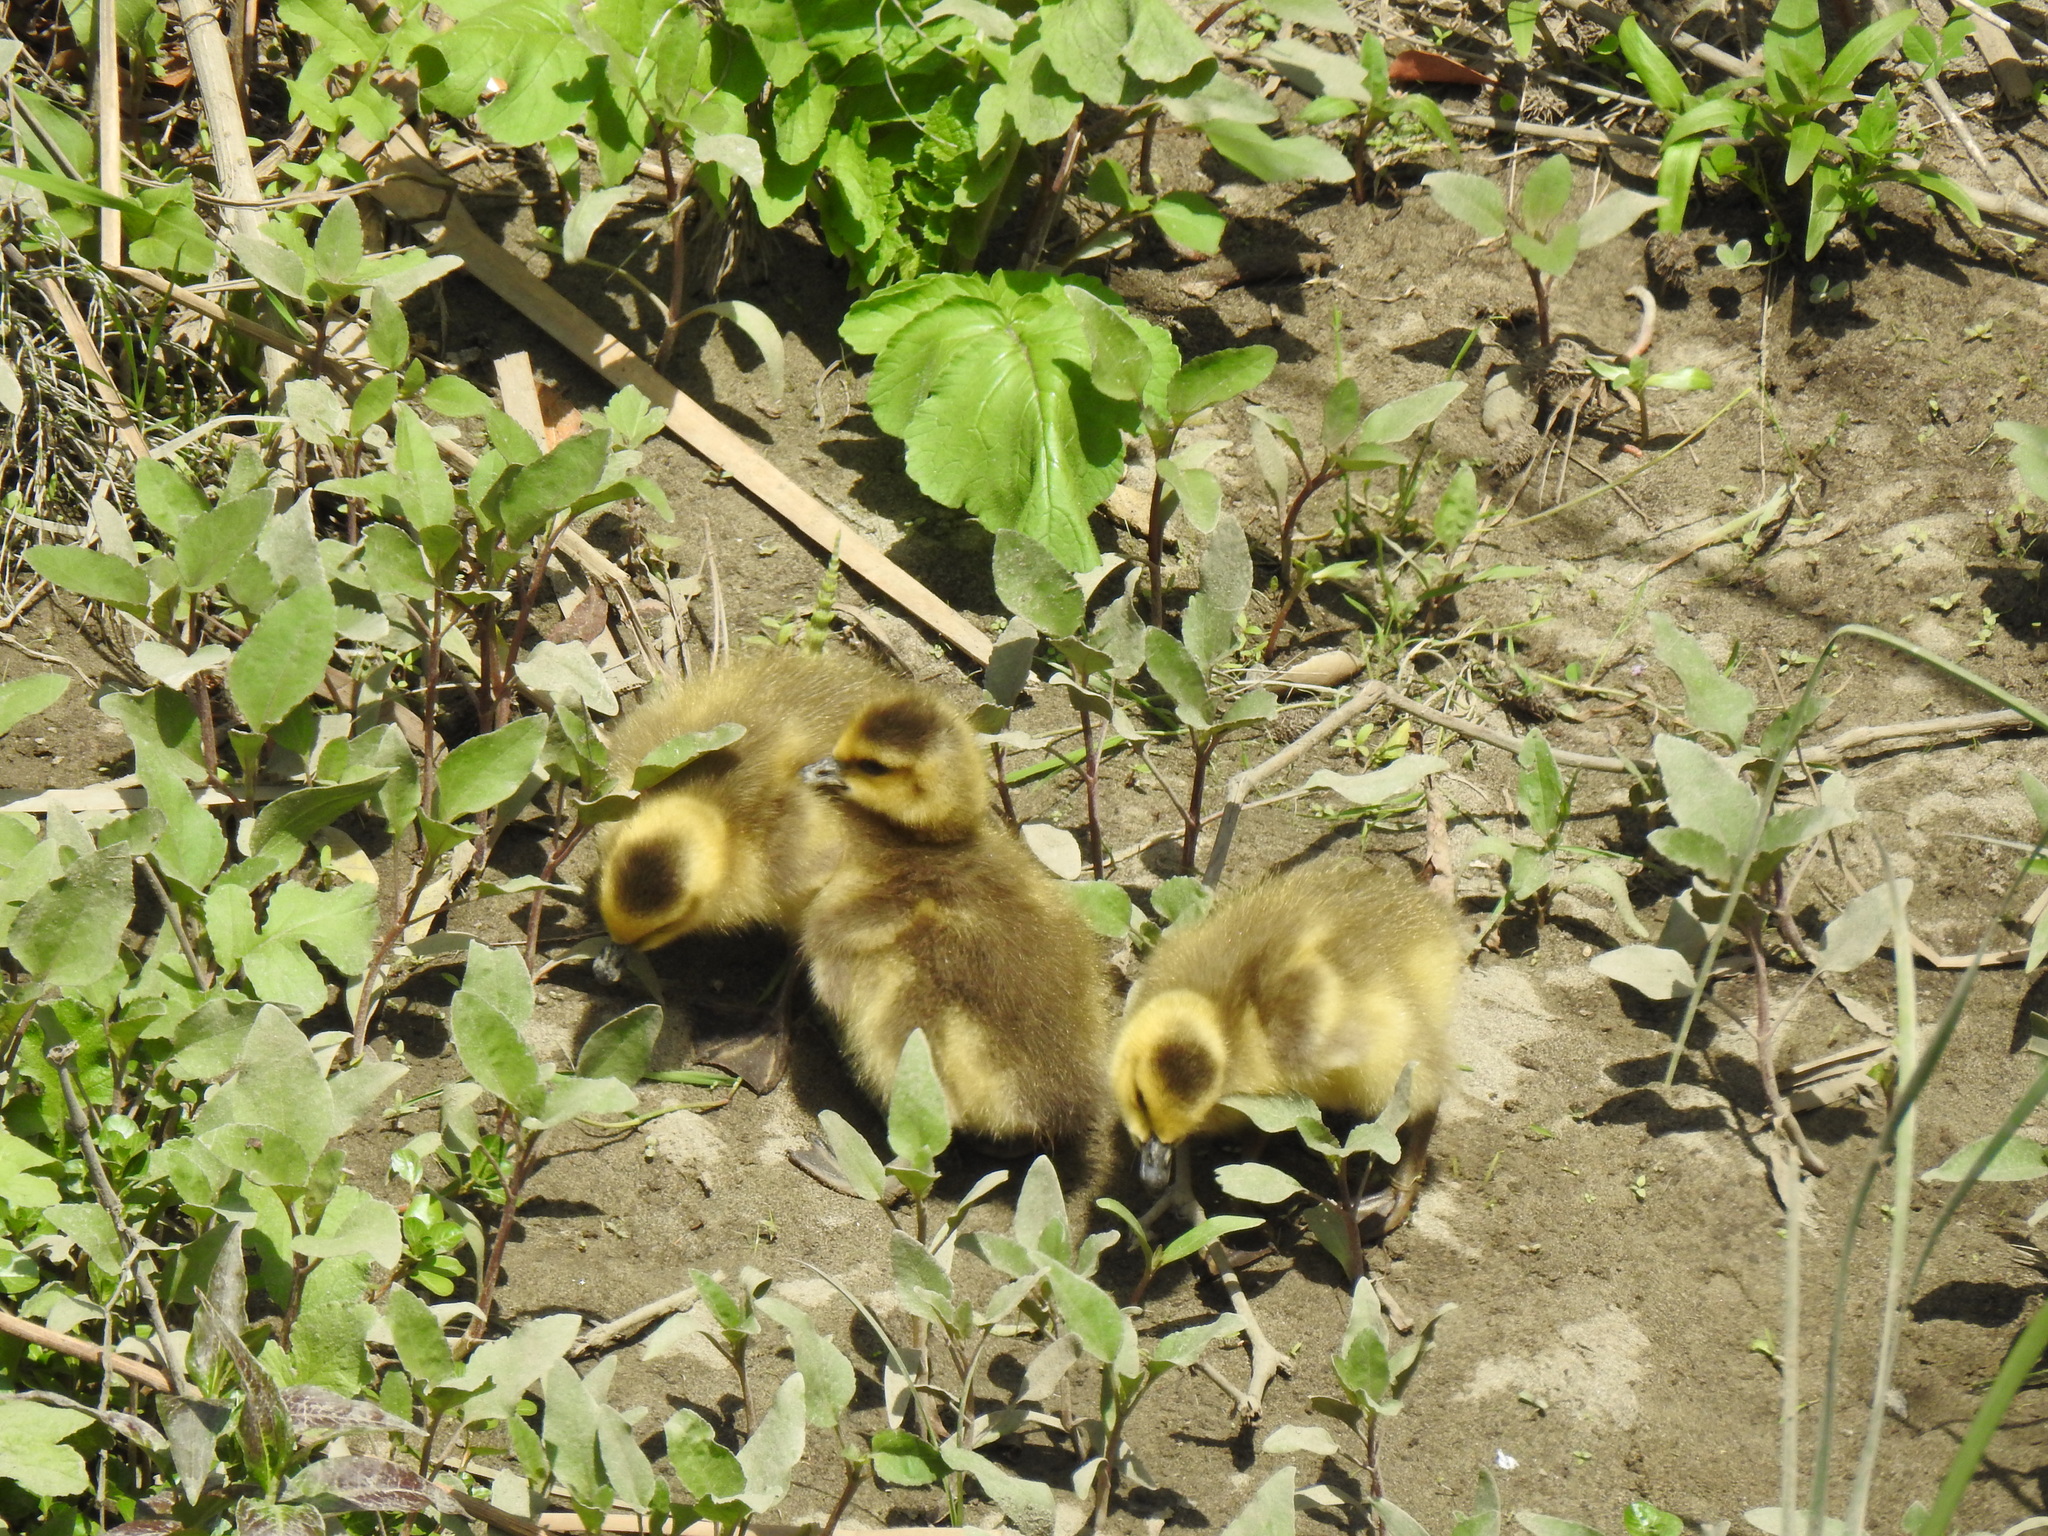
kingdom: Animalia
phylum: Chordata
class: Aves
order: Anseriformes
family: Anatidae
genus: Branta
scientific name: Branta canadensis
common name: Canada goose
